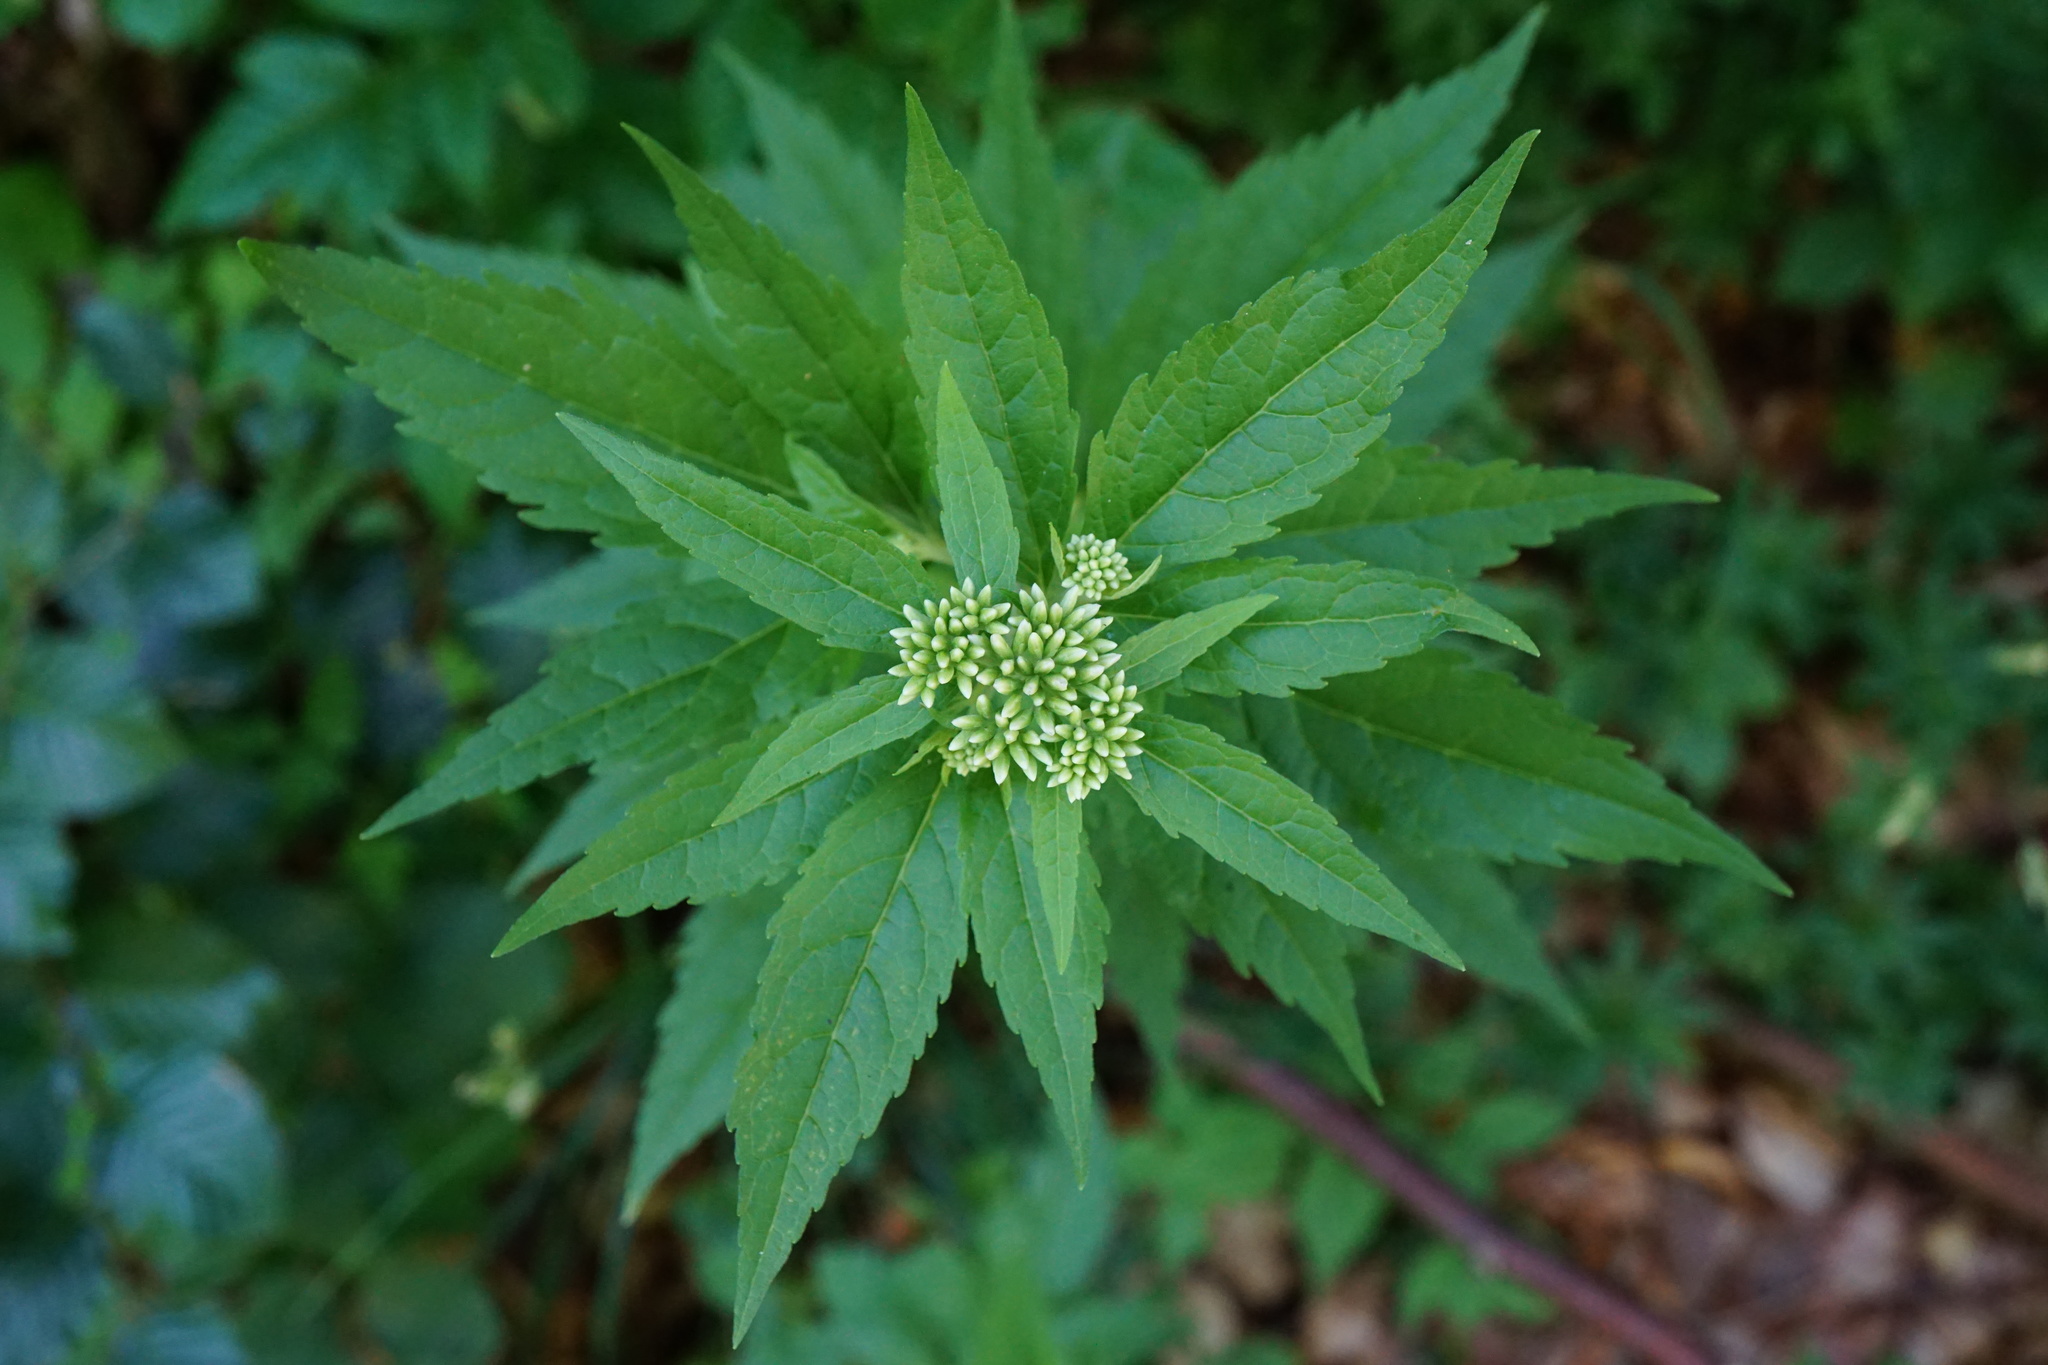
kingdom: Plantae
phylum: Tracheophyta
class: Magnoliopsida
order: Asterales
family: Asteraceae
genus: Eupatorium
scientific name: Eupatorium cannabinum
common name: Hemp-agrimony
